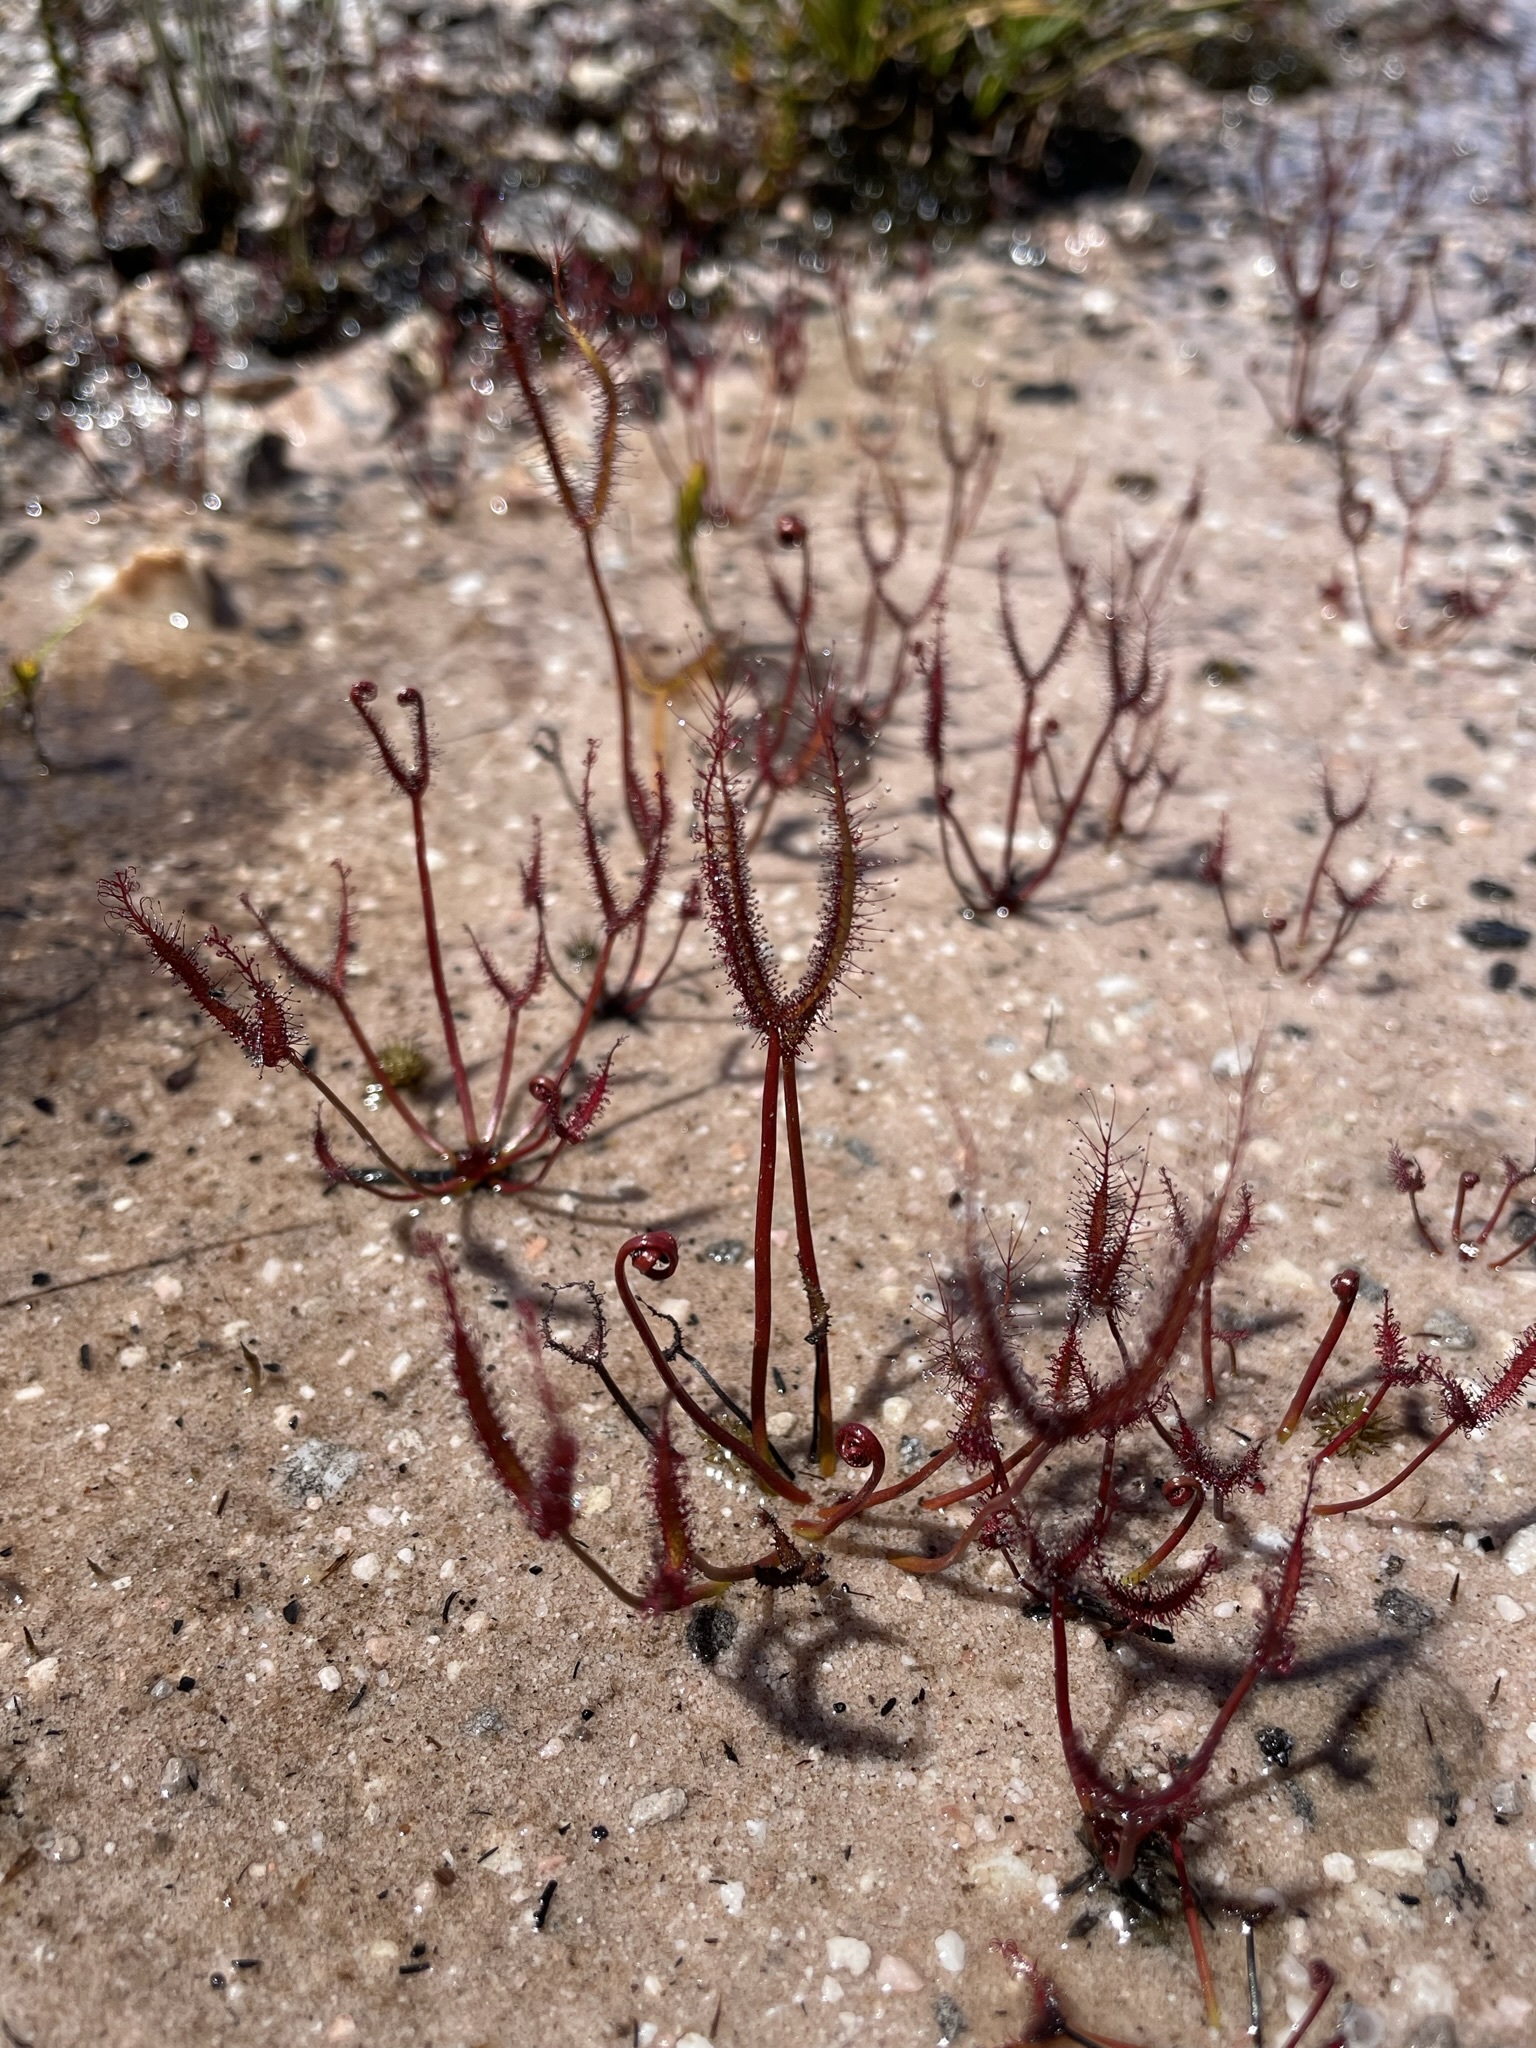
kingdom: Plantae
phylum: Tracheophyta
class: Magnoliopsida
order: Caryophyllales
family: Droseraceae
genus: Drosera
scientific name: Drosera binata
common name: Forked sundew
